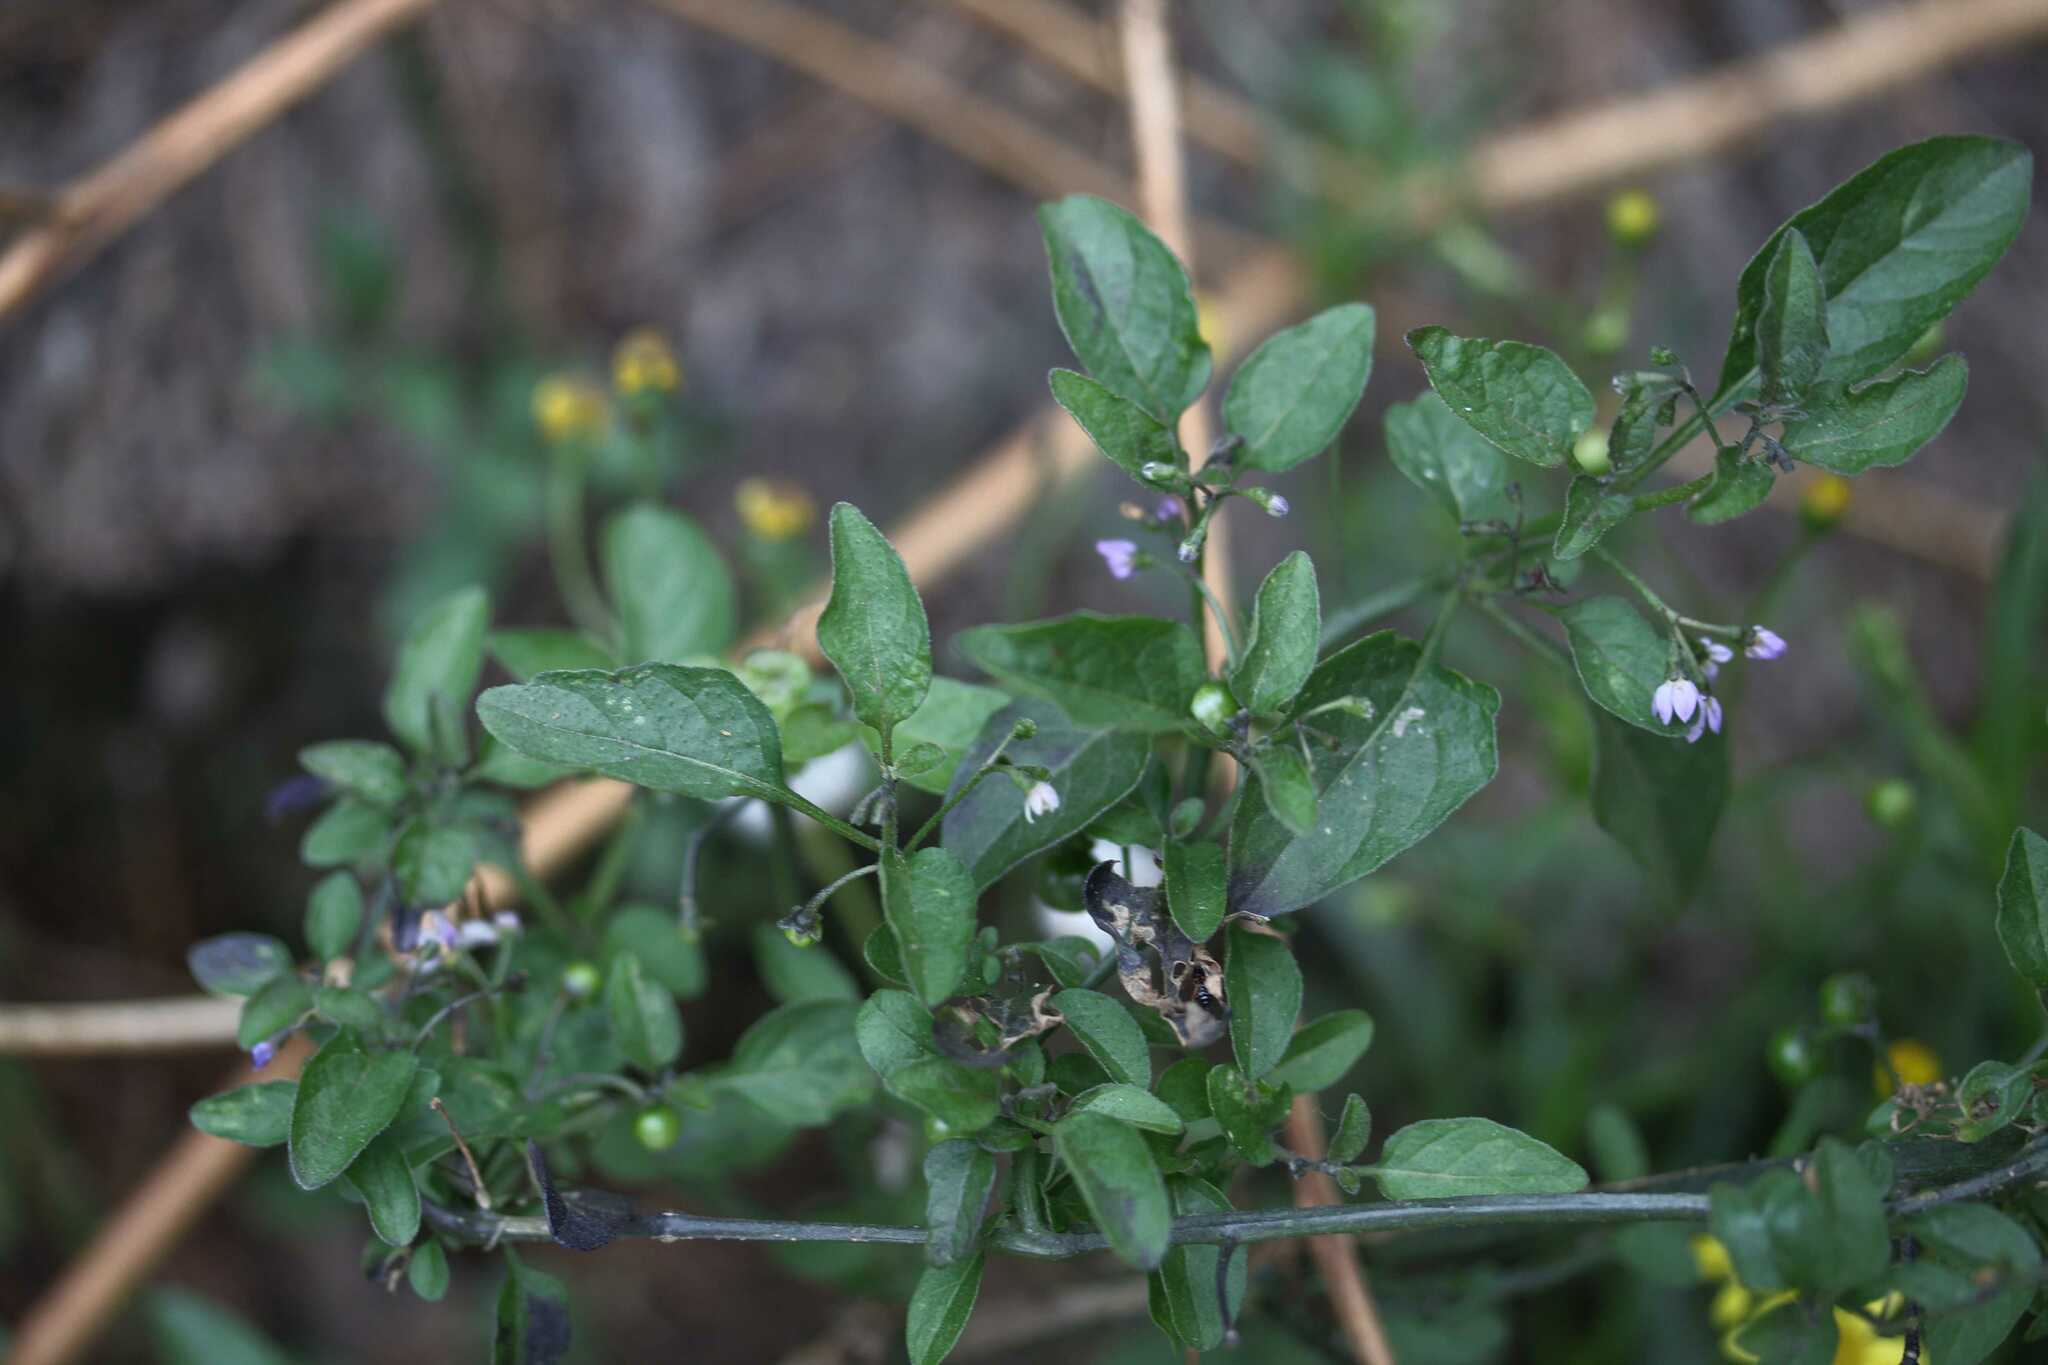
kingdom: Plantae
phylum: Tracheophyta
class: Magnoliopsida
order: Solanales
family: Solanaceae
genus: Solanum
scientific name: Solanum
